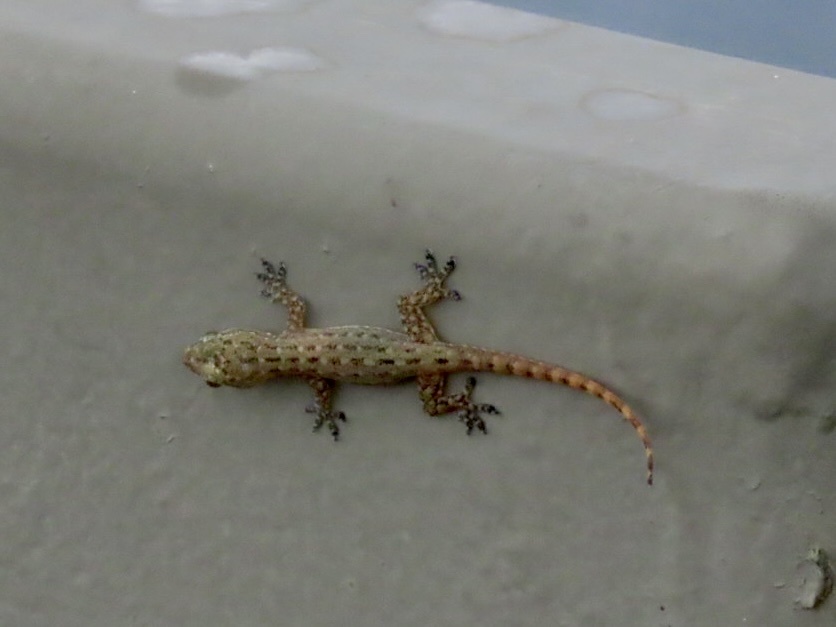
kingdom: Animalia
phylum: Chordata
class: Squamata
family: Gekkonidae
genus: Hemidactylus
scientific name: Hemidactylus garnotii
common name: Indo-pacific gecko
